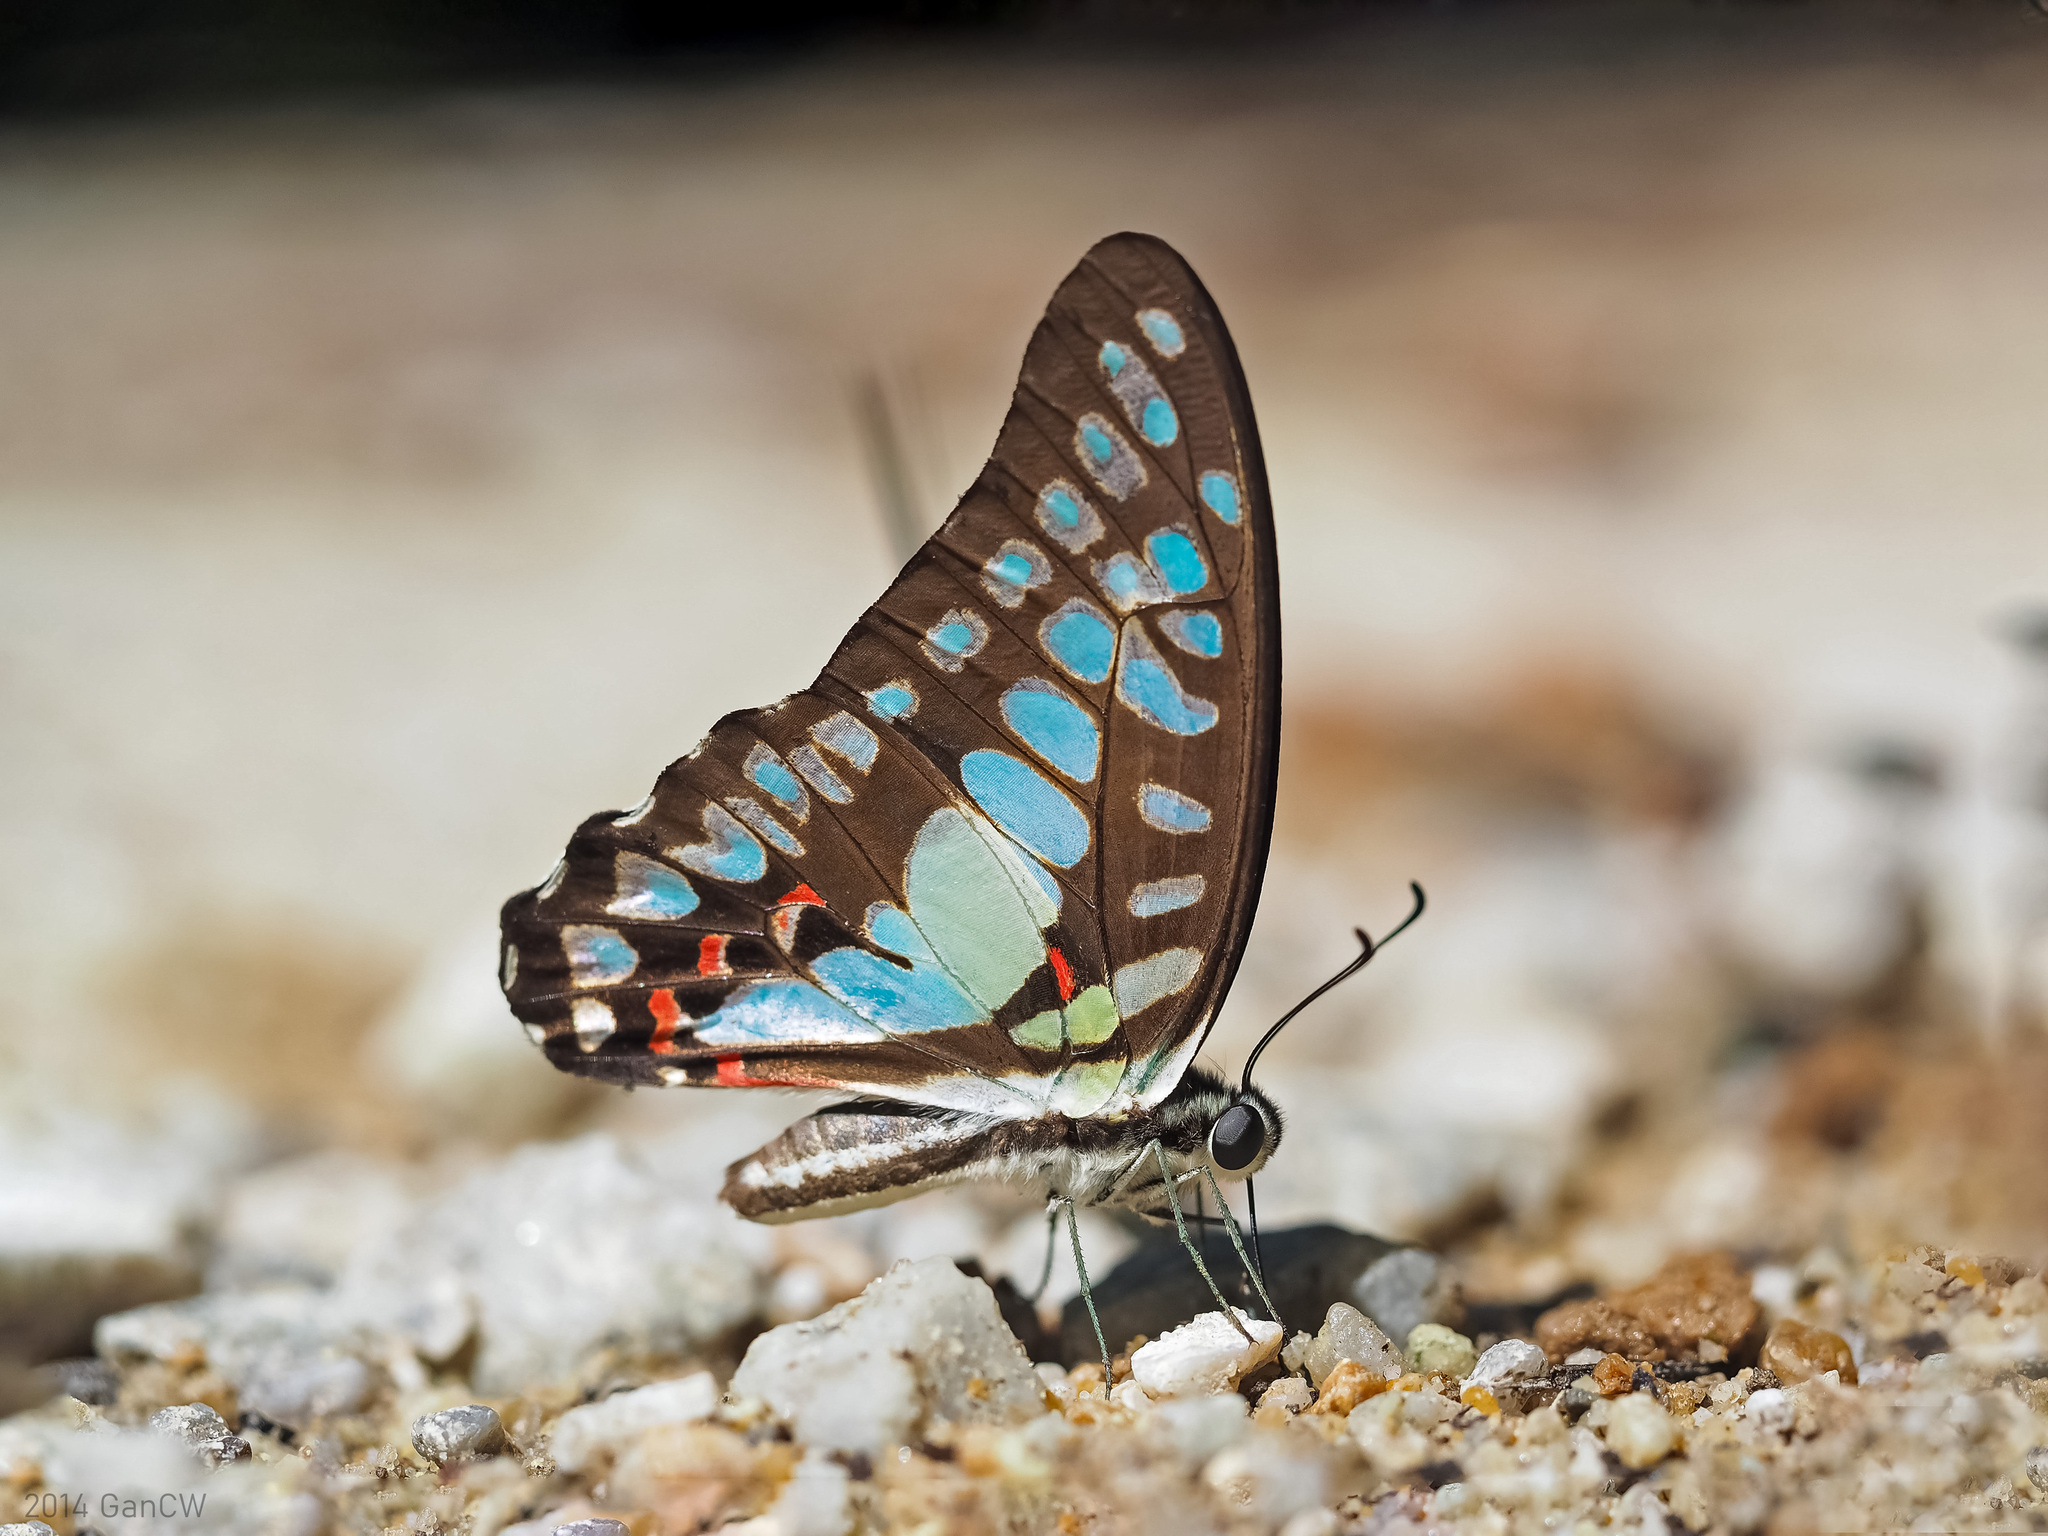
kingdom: Animalia
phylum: Arthropoda
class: Insecta
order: Lepidoptera
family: Papilionidae
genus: Graphium
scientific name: Graphium eurypylus
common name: Great jay
